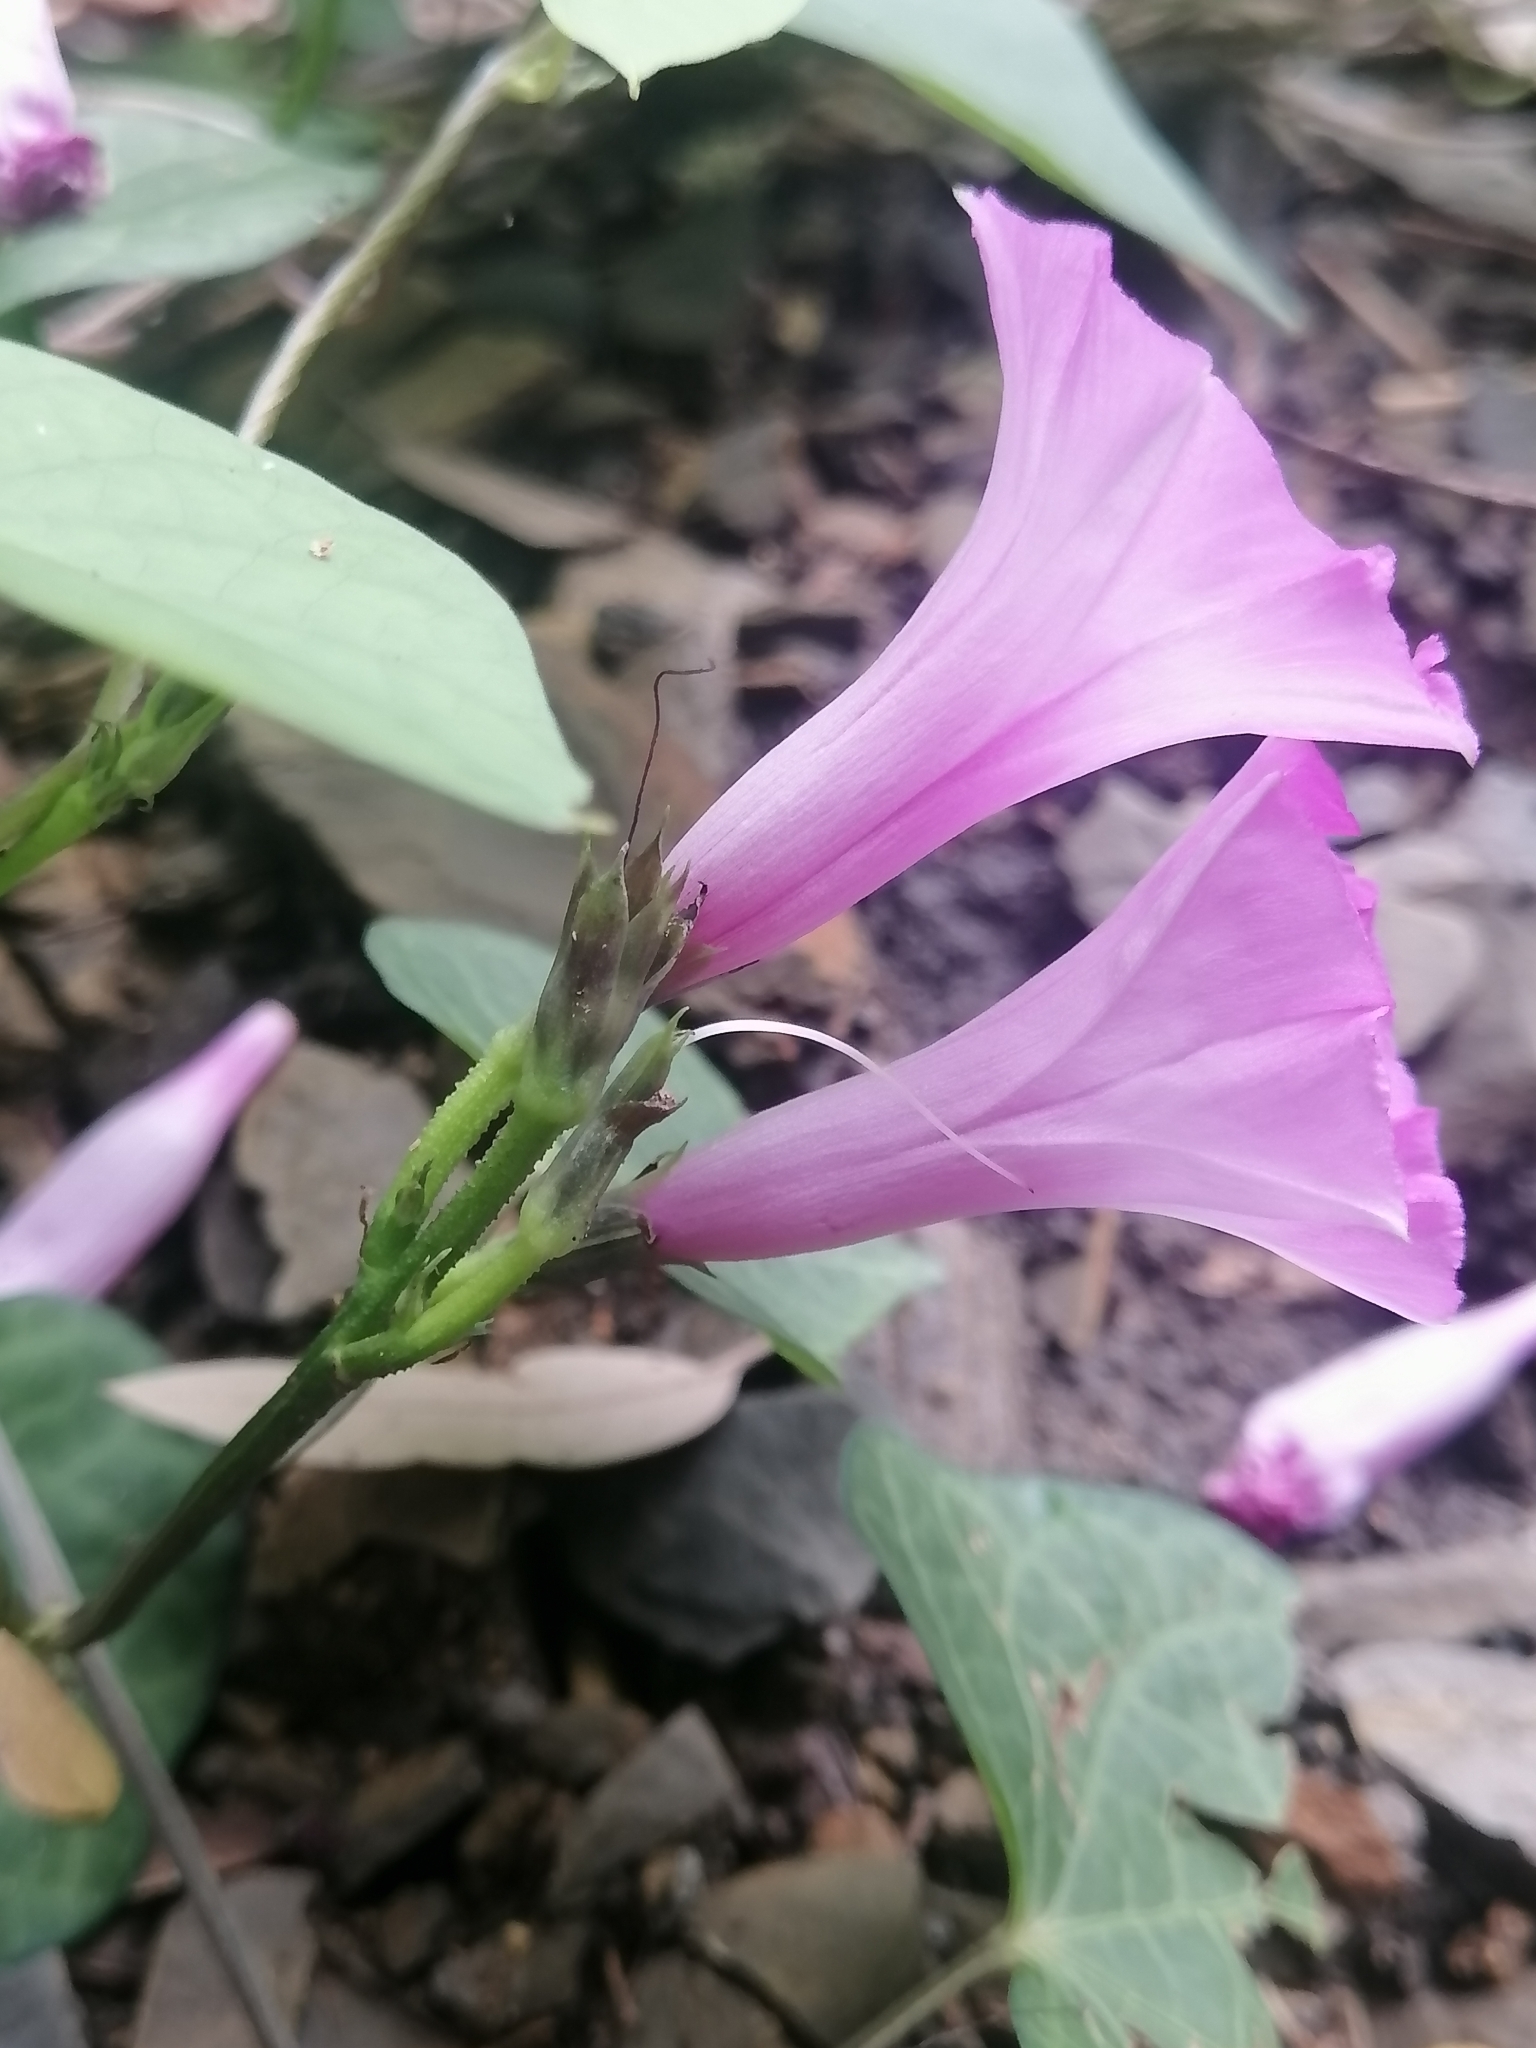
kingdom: Plantae
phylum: Tracheophyta
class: Magnoliopsida
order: Solanales
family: Convolvulaceae
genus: Ipomoea
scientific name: Ipomoea cordatotriloba
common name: Cotton morning glory
